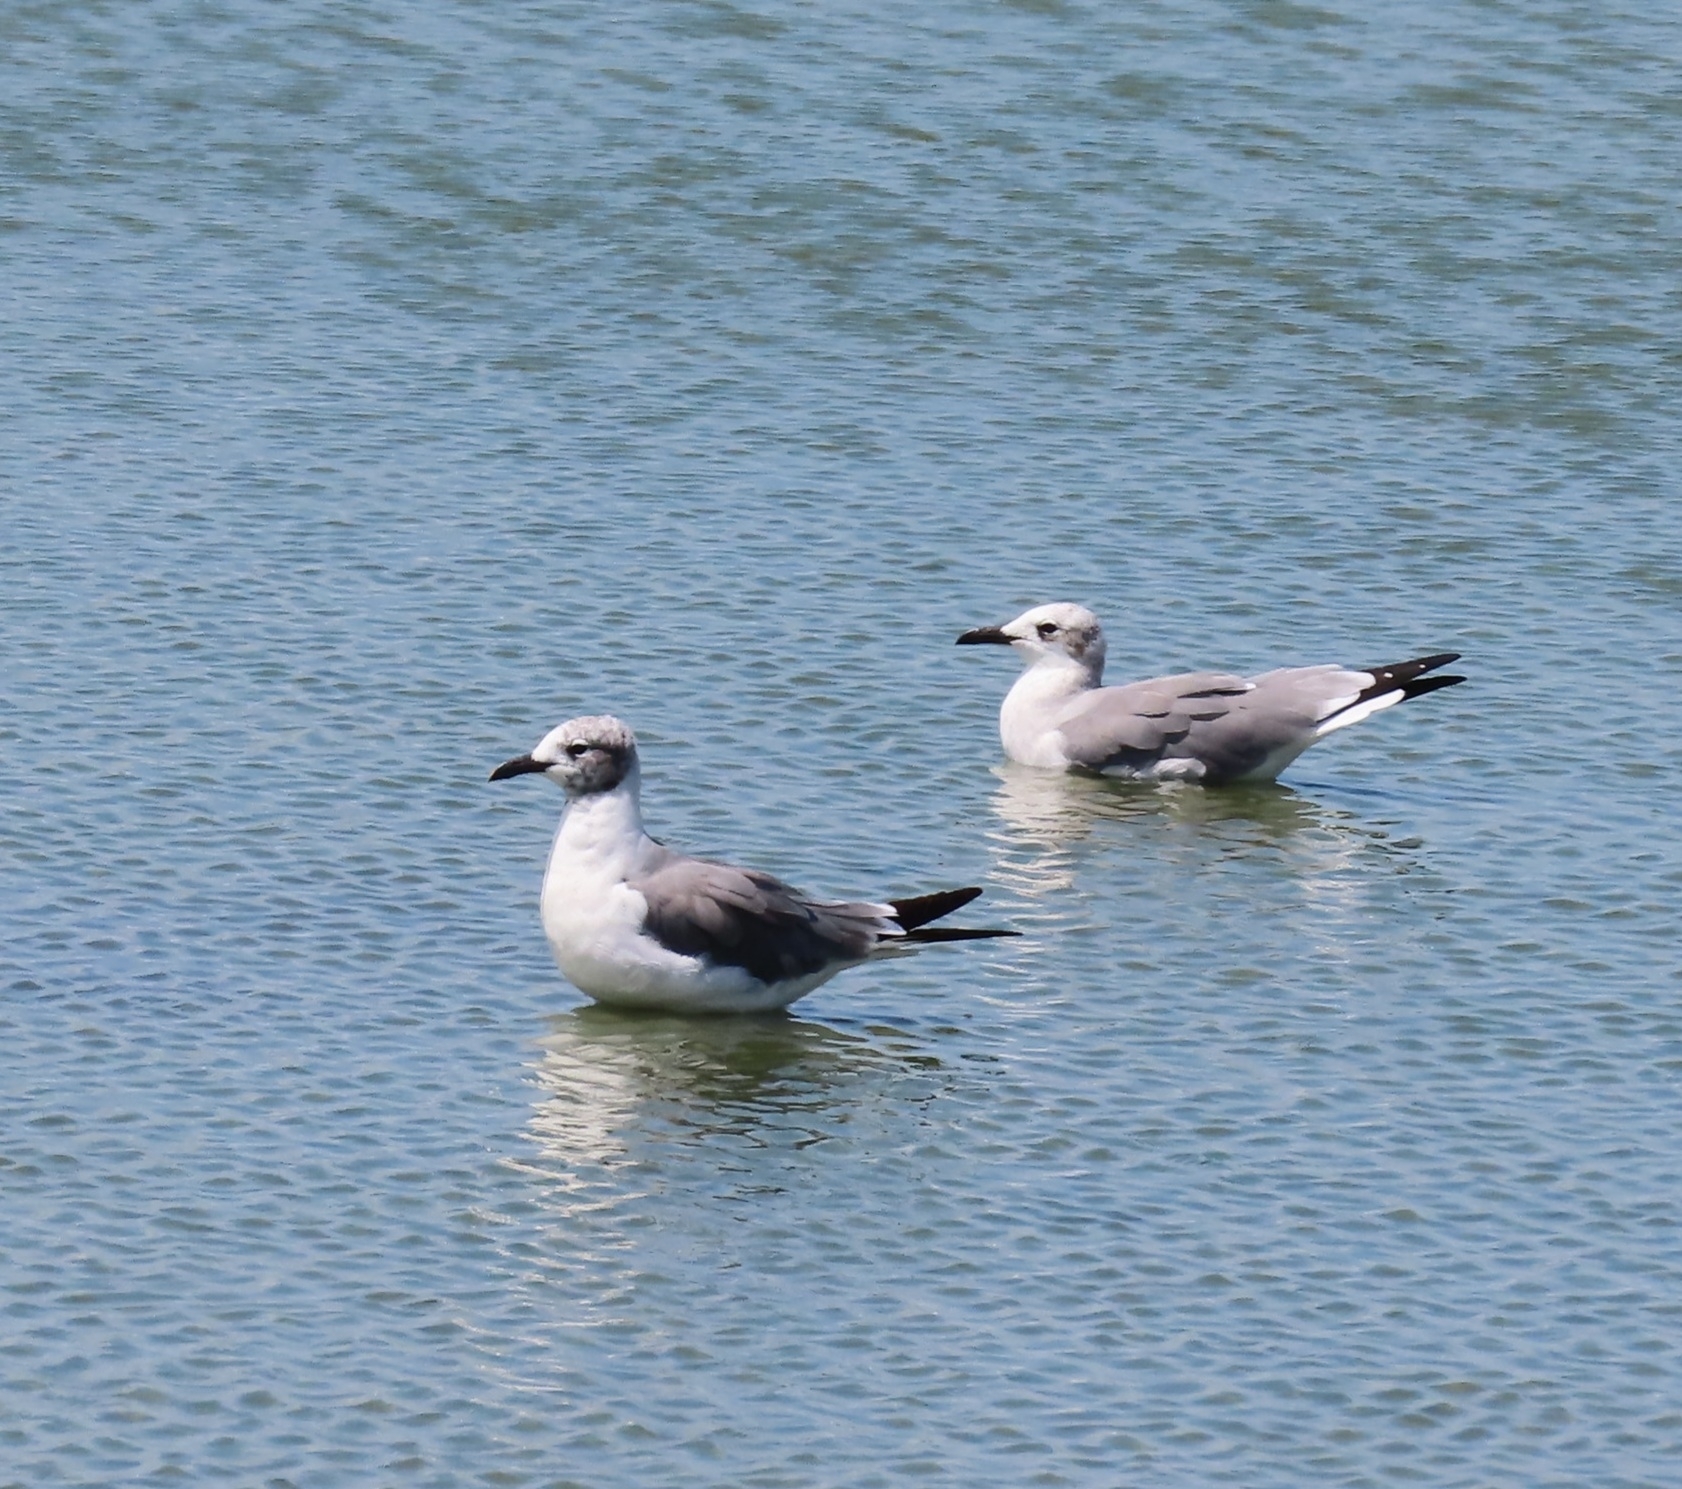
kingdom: Animalia
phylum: Chordata
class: Aves
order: Charadriiformes
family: Laridae
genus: Leucophaeus
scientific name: Leucophaeus atricilla
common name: Laughing gull
